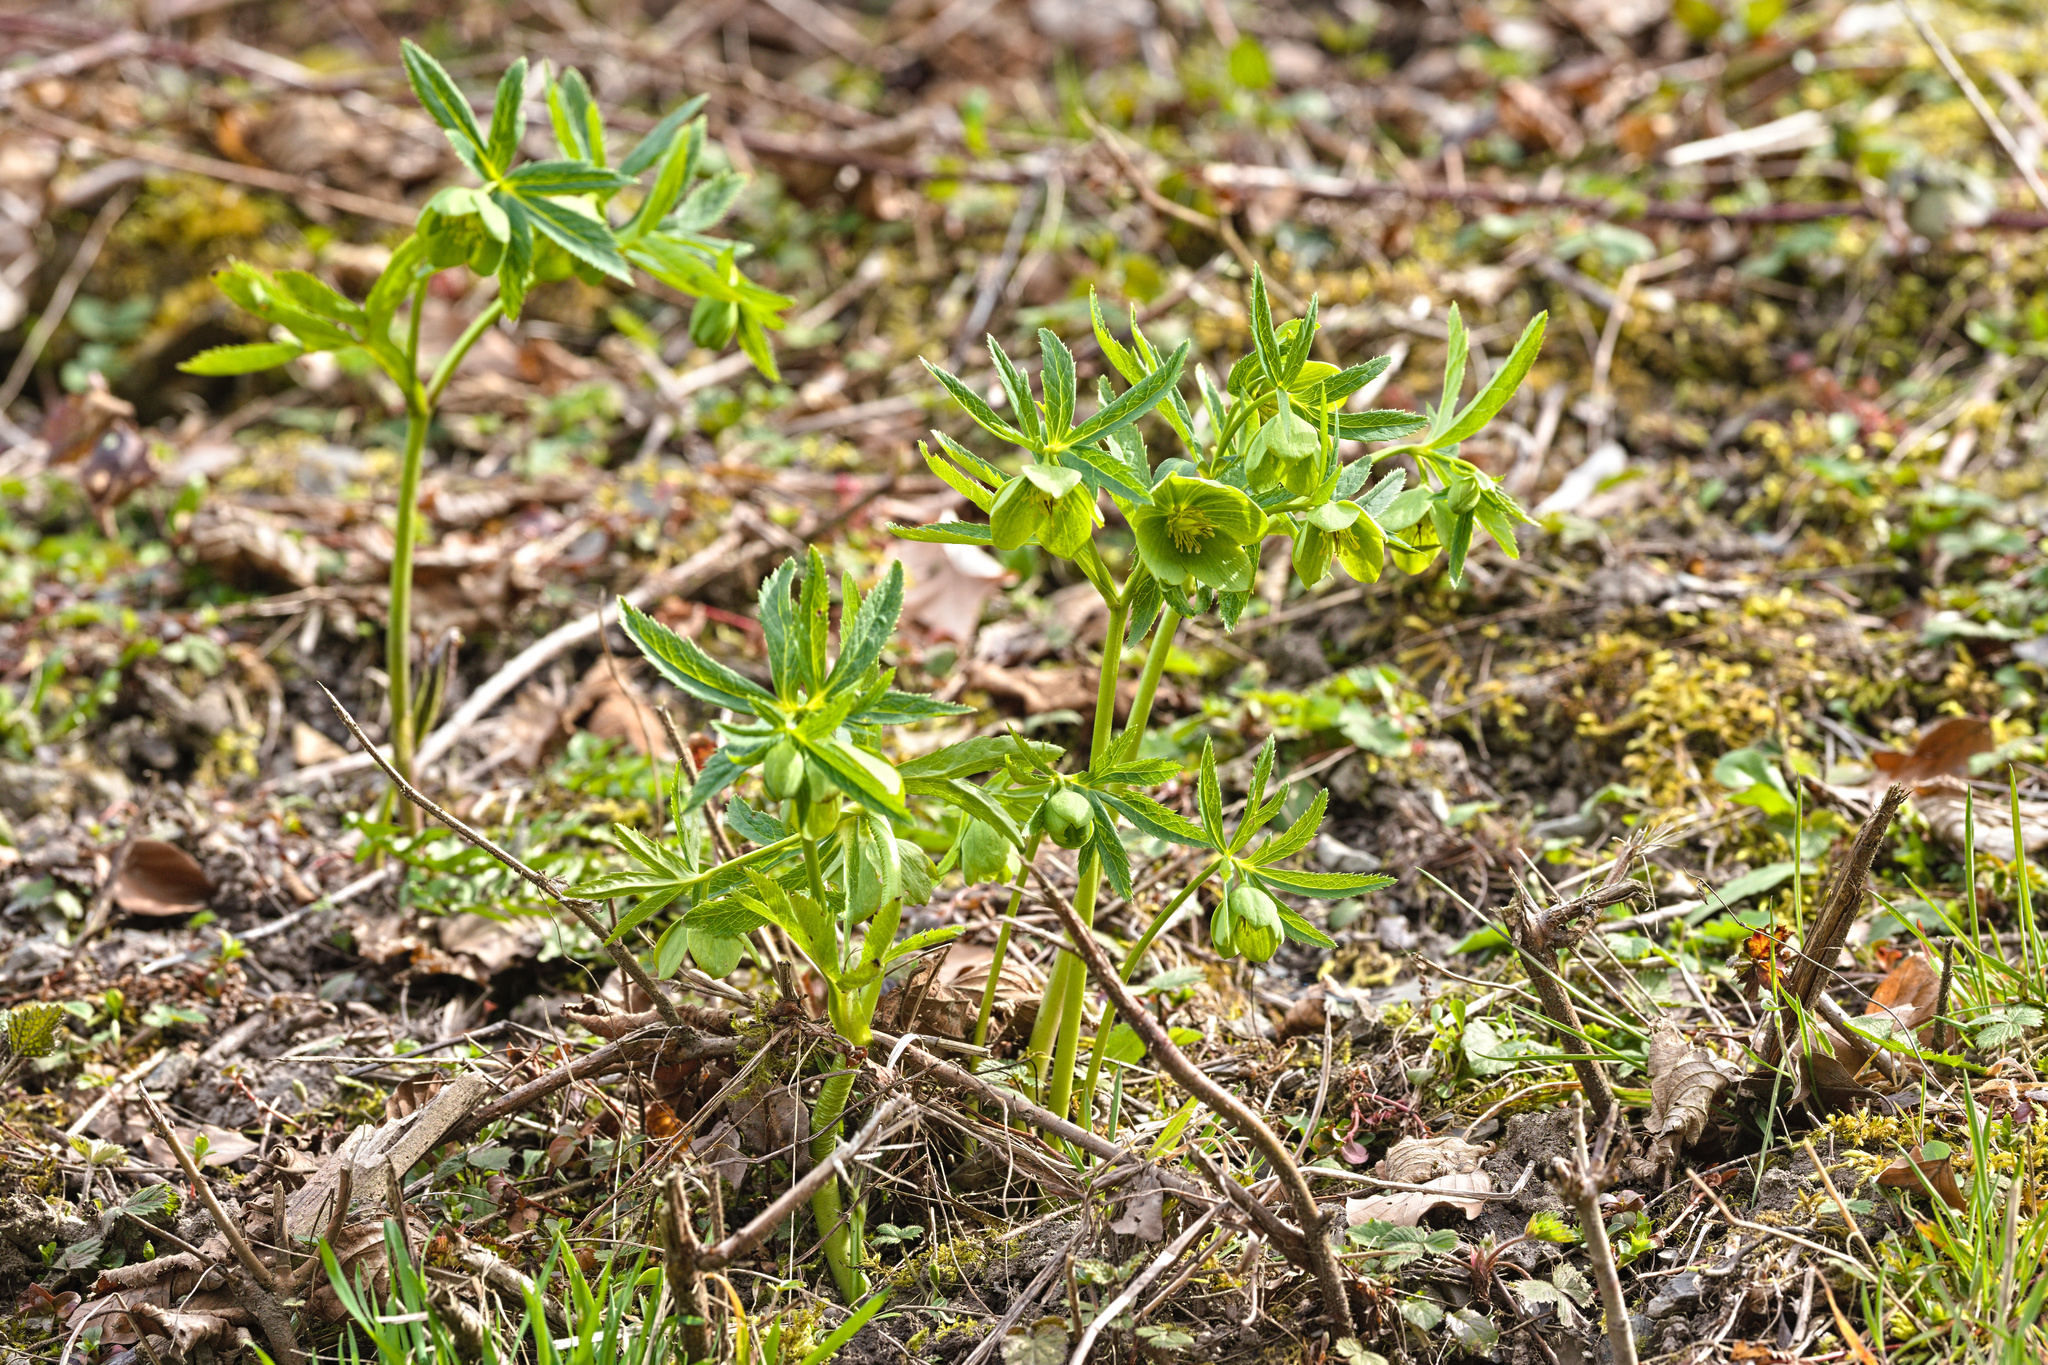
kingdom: Plantae
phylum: Tracheophyta
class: Magnoliopsida
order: Ranunculales
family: Ranunculaceae
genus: Helleborus
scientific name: Helleborus viridis
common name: Green hellebore
